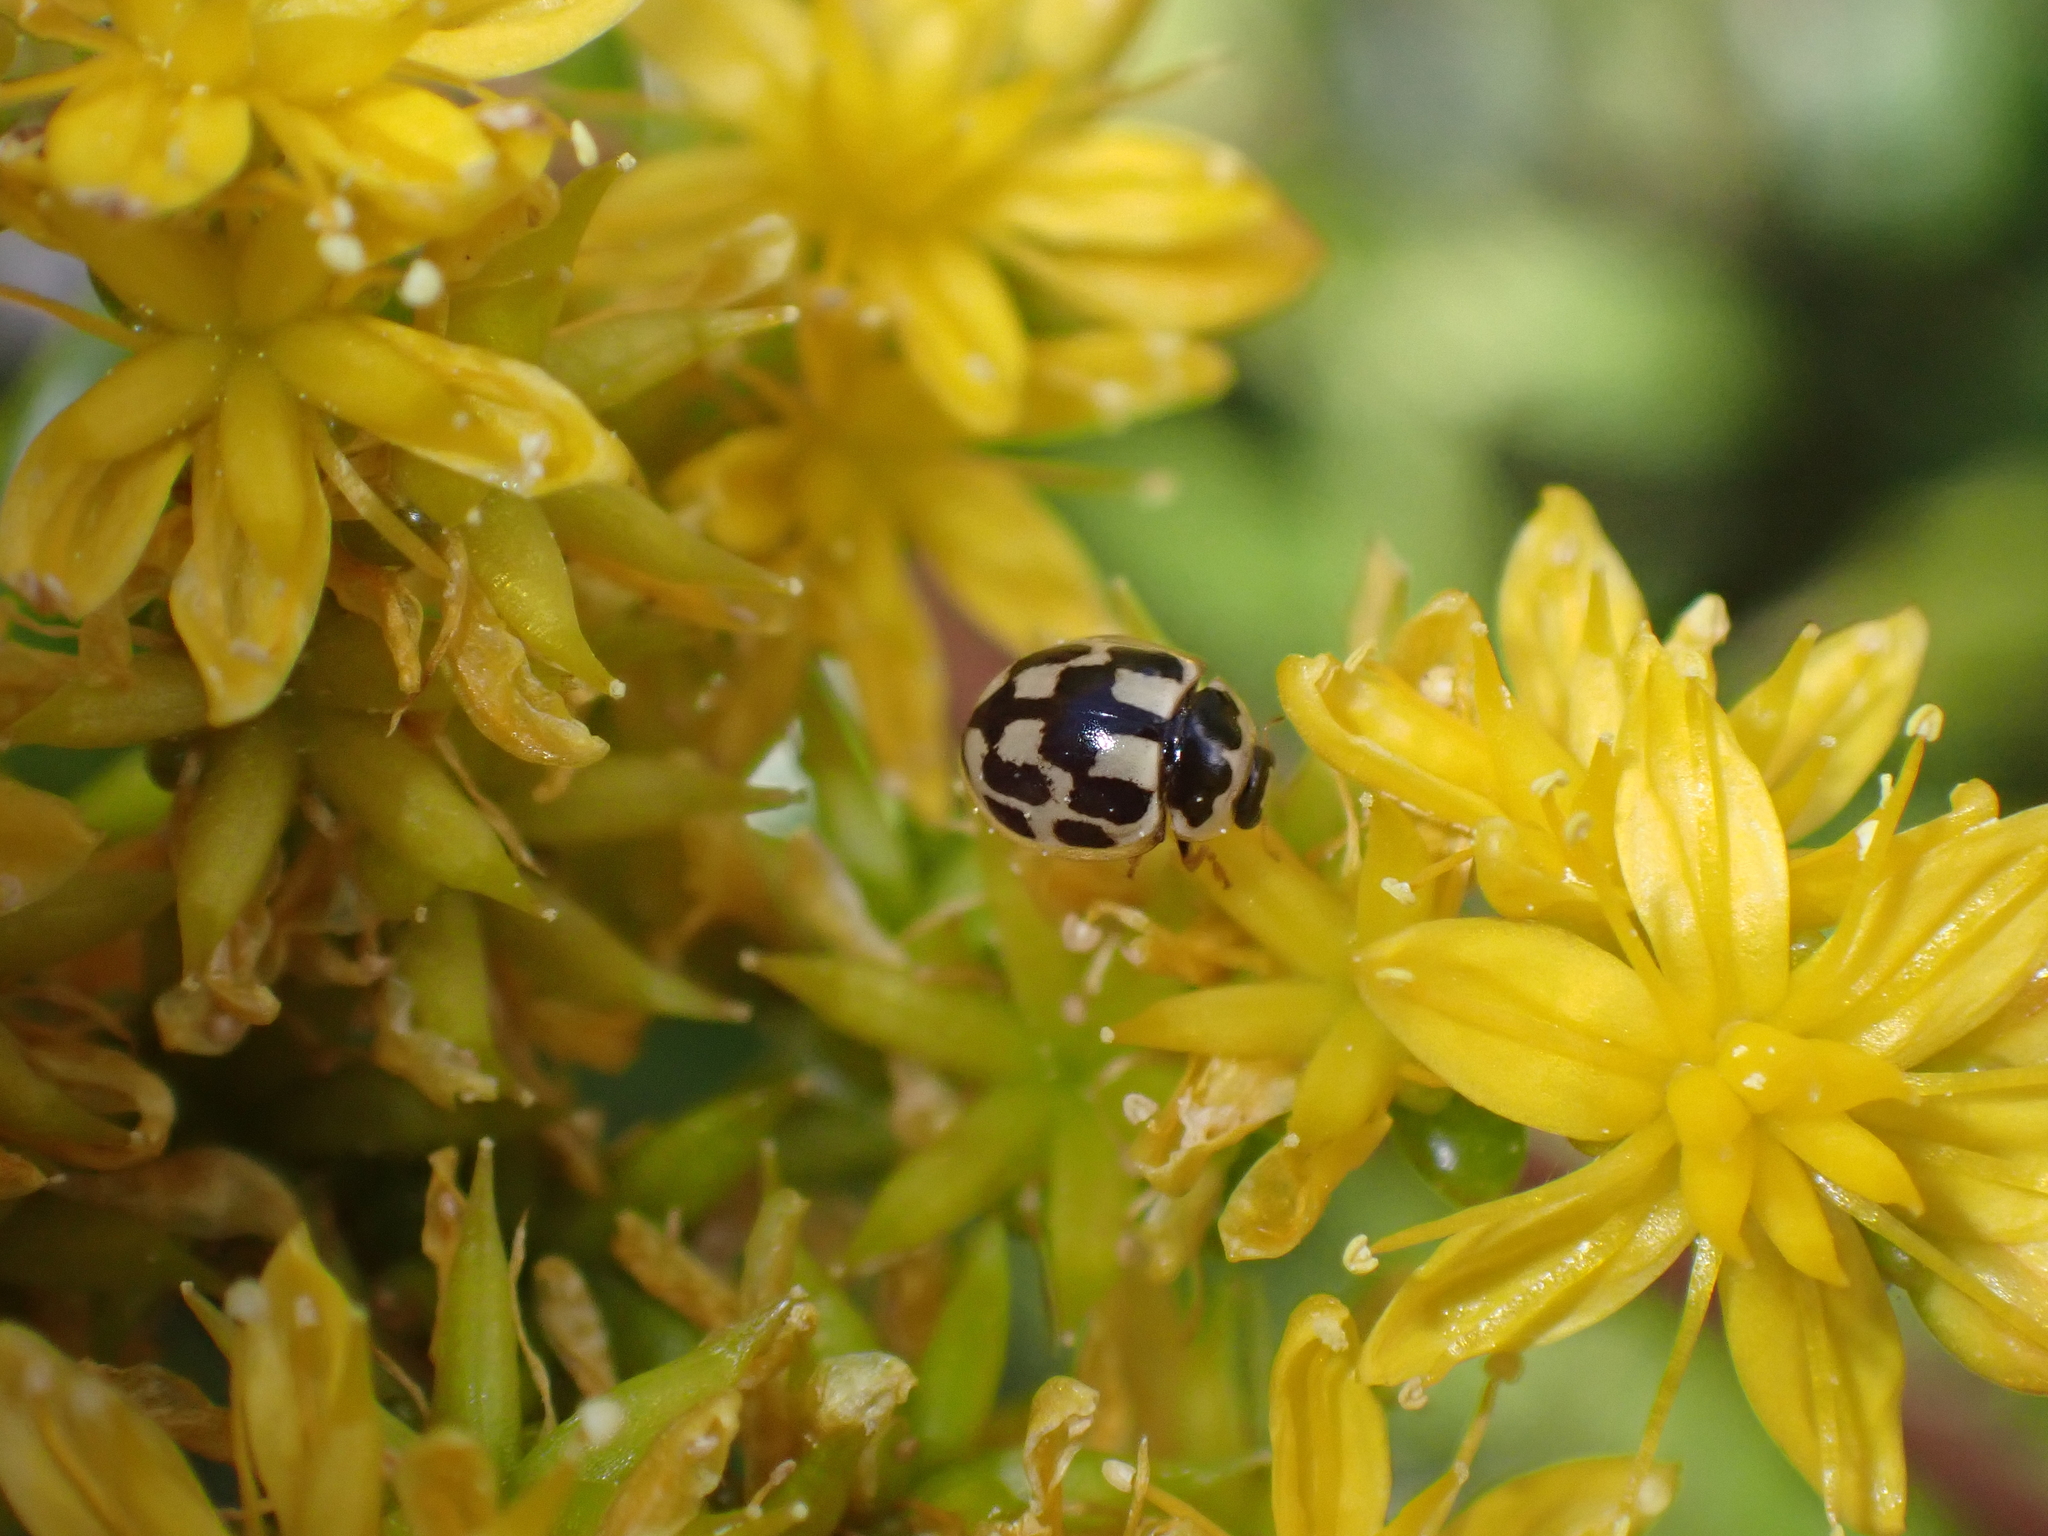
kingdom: Animalia
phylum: Arthropoda
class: Insecta
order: Coleoptera
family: Coccinellidae
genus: Propylaea
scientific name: Propylaea quatuordecimpunctata
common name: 14-spotted ladybird beetle
